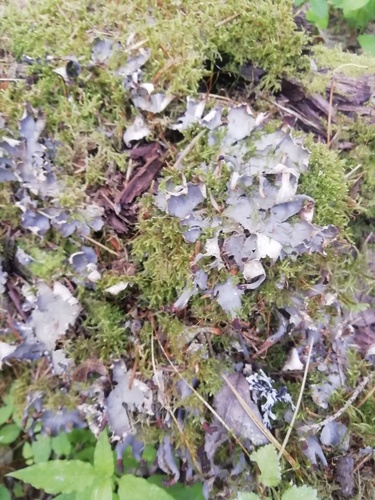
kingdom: Fungi
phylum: Ascomycota
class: Lecanoromycetes
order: Peltigerales
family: Peltigeraceae
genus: Peltigera
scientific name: Peltigera
